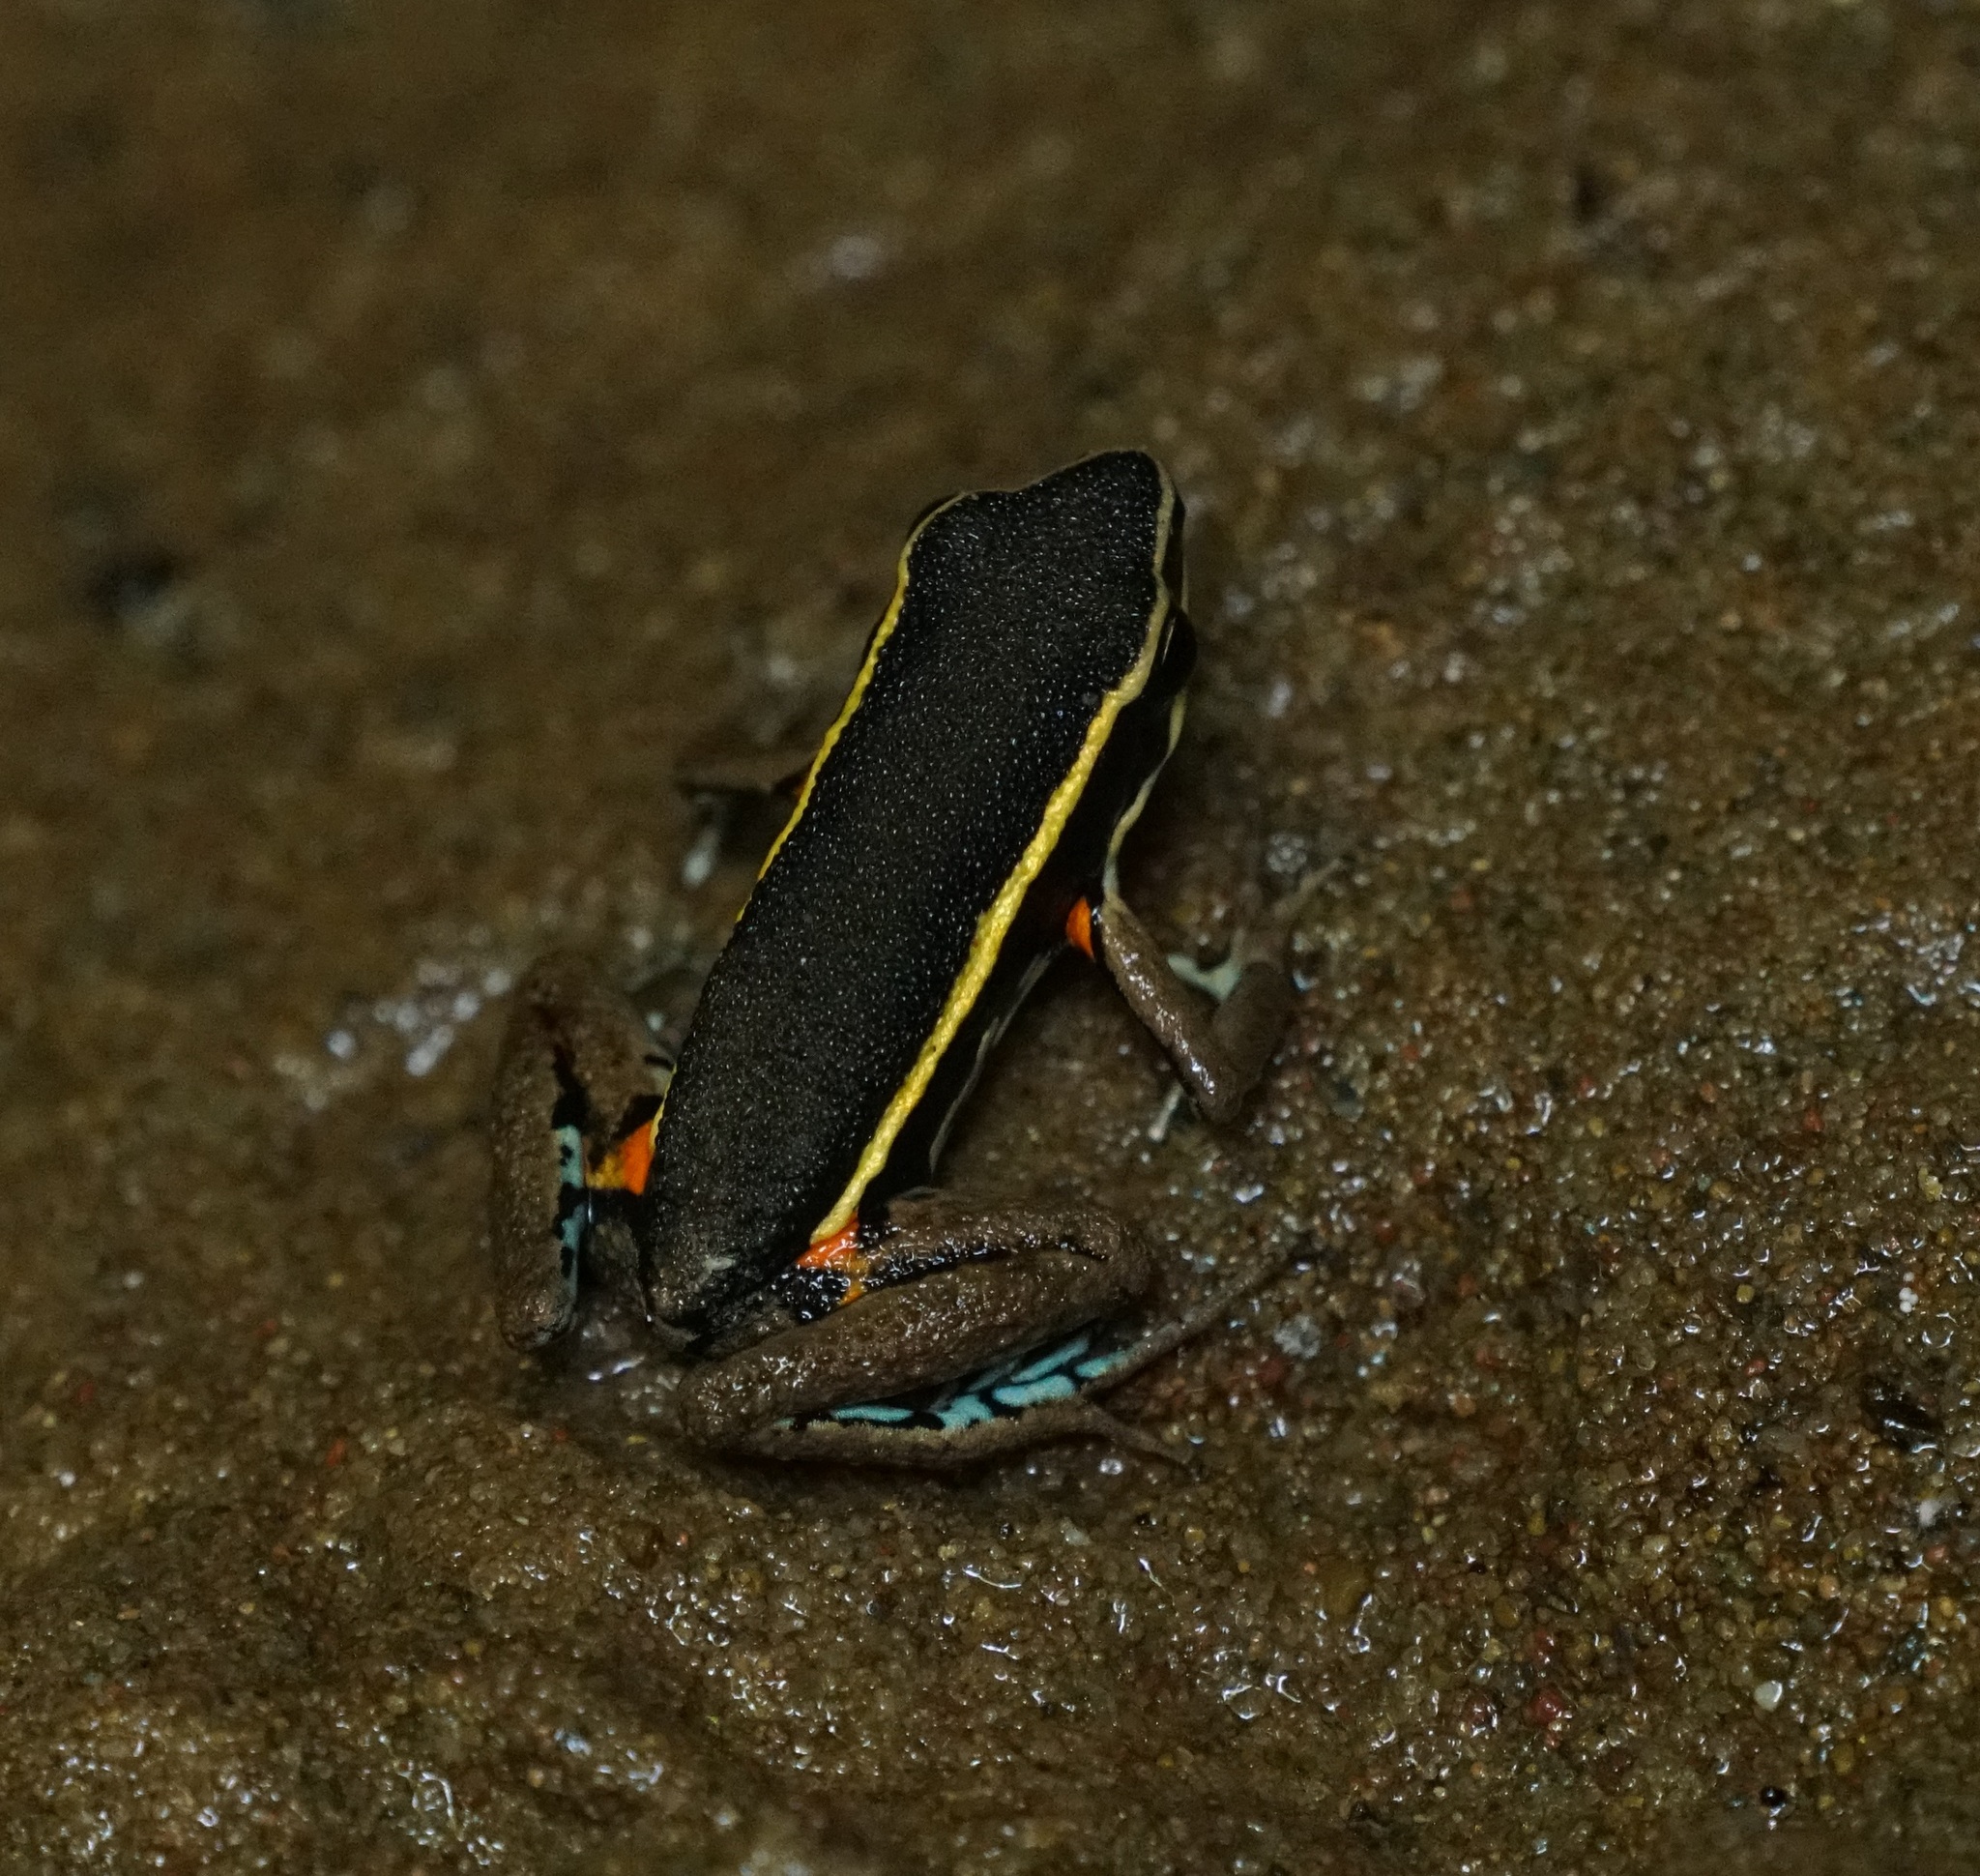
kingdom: Animalia
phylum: Chordata
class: Amphibia
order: Anura
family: Dendrobatidae
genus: Ameerega
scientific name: Ameerega picta
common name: Spot-legged poison frog
